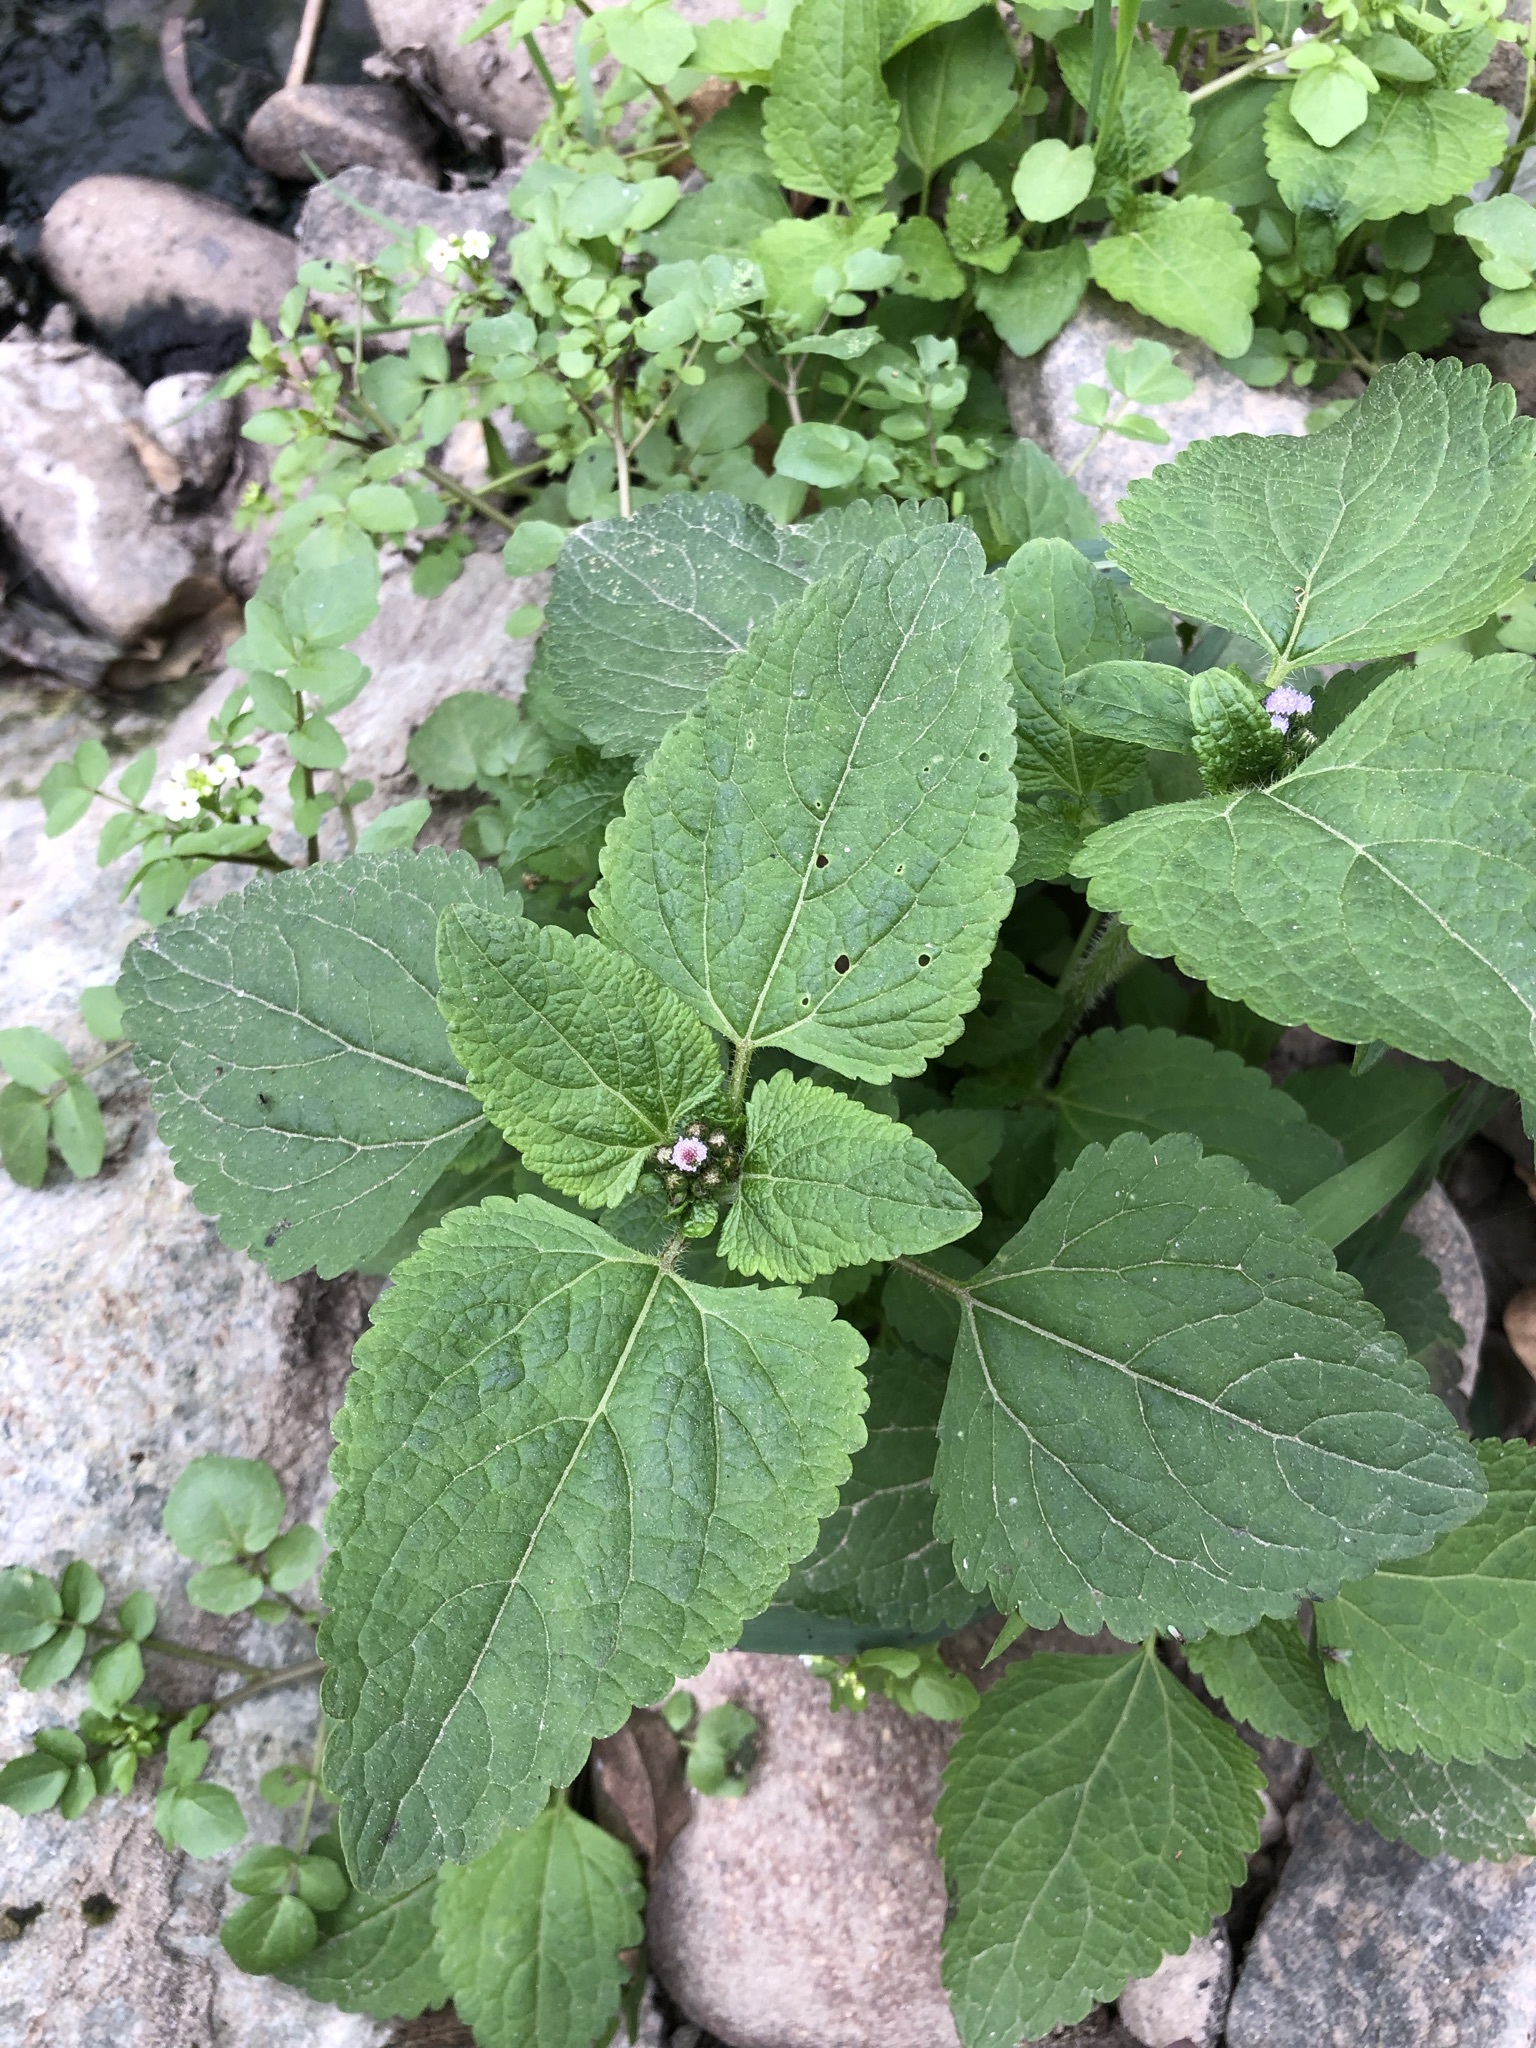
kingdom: Plantae
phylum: Tracheophyta
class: Magnoliopsida
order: Lamiales
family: Verbenaceae
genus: Lantana
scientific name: Lantana camara
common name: Lantana
